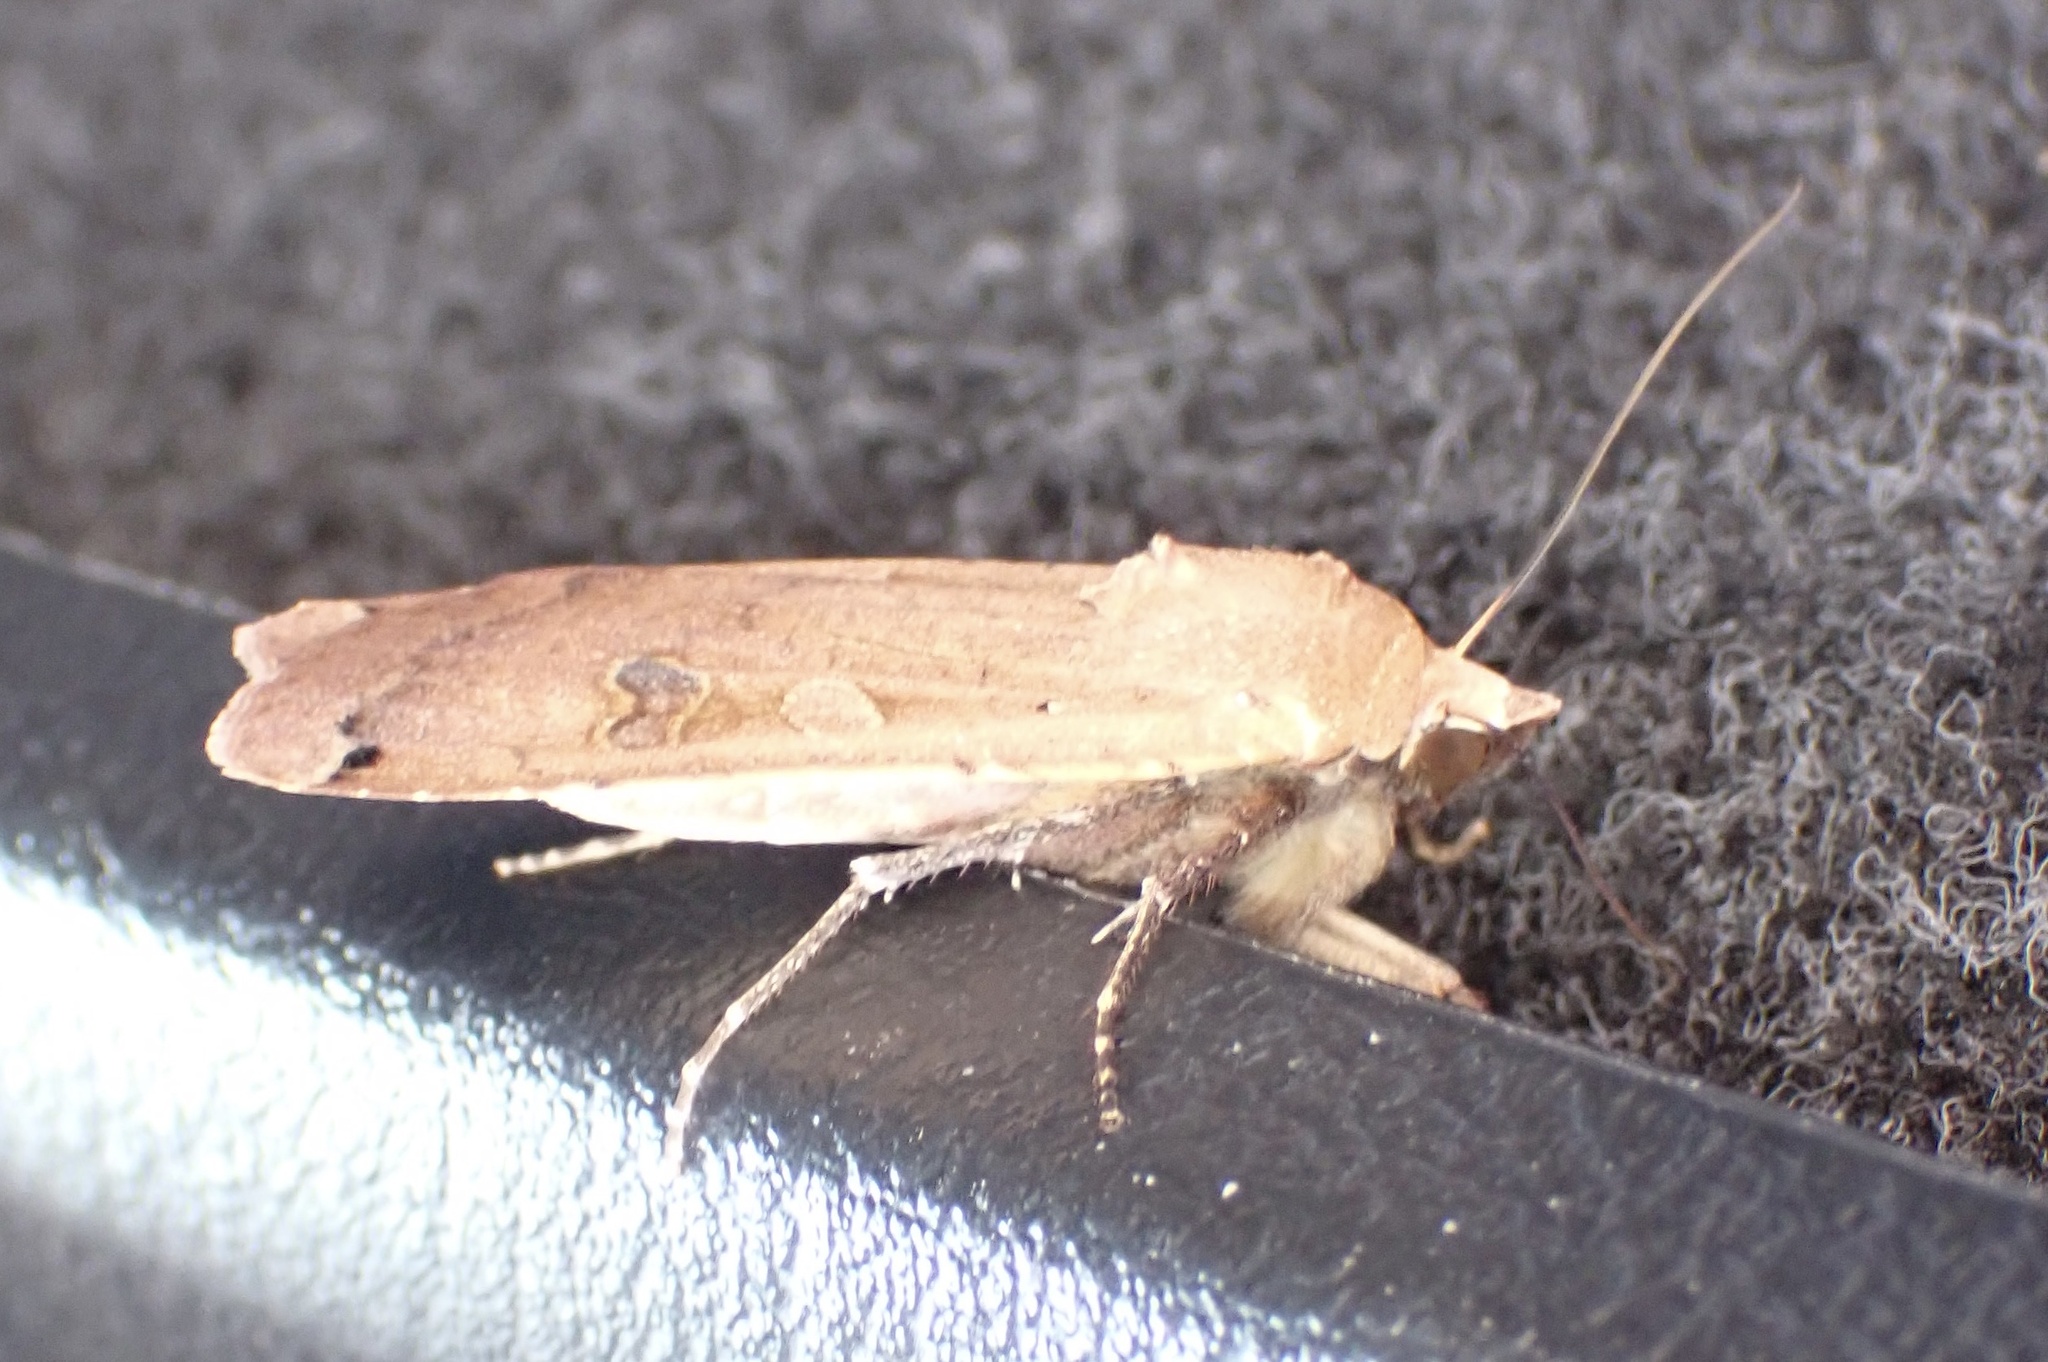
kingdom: Animalia
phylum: Arthropoda
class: Insecta
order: Lepidoptera
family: Noctuidae
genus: Noctua
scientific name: Noctua pronuba
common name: Large yellow underwing
